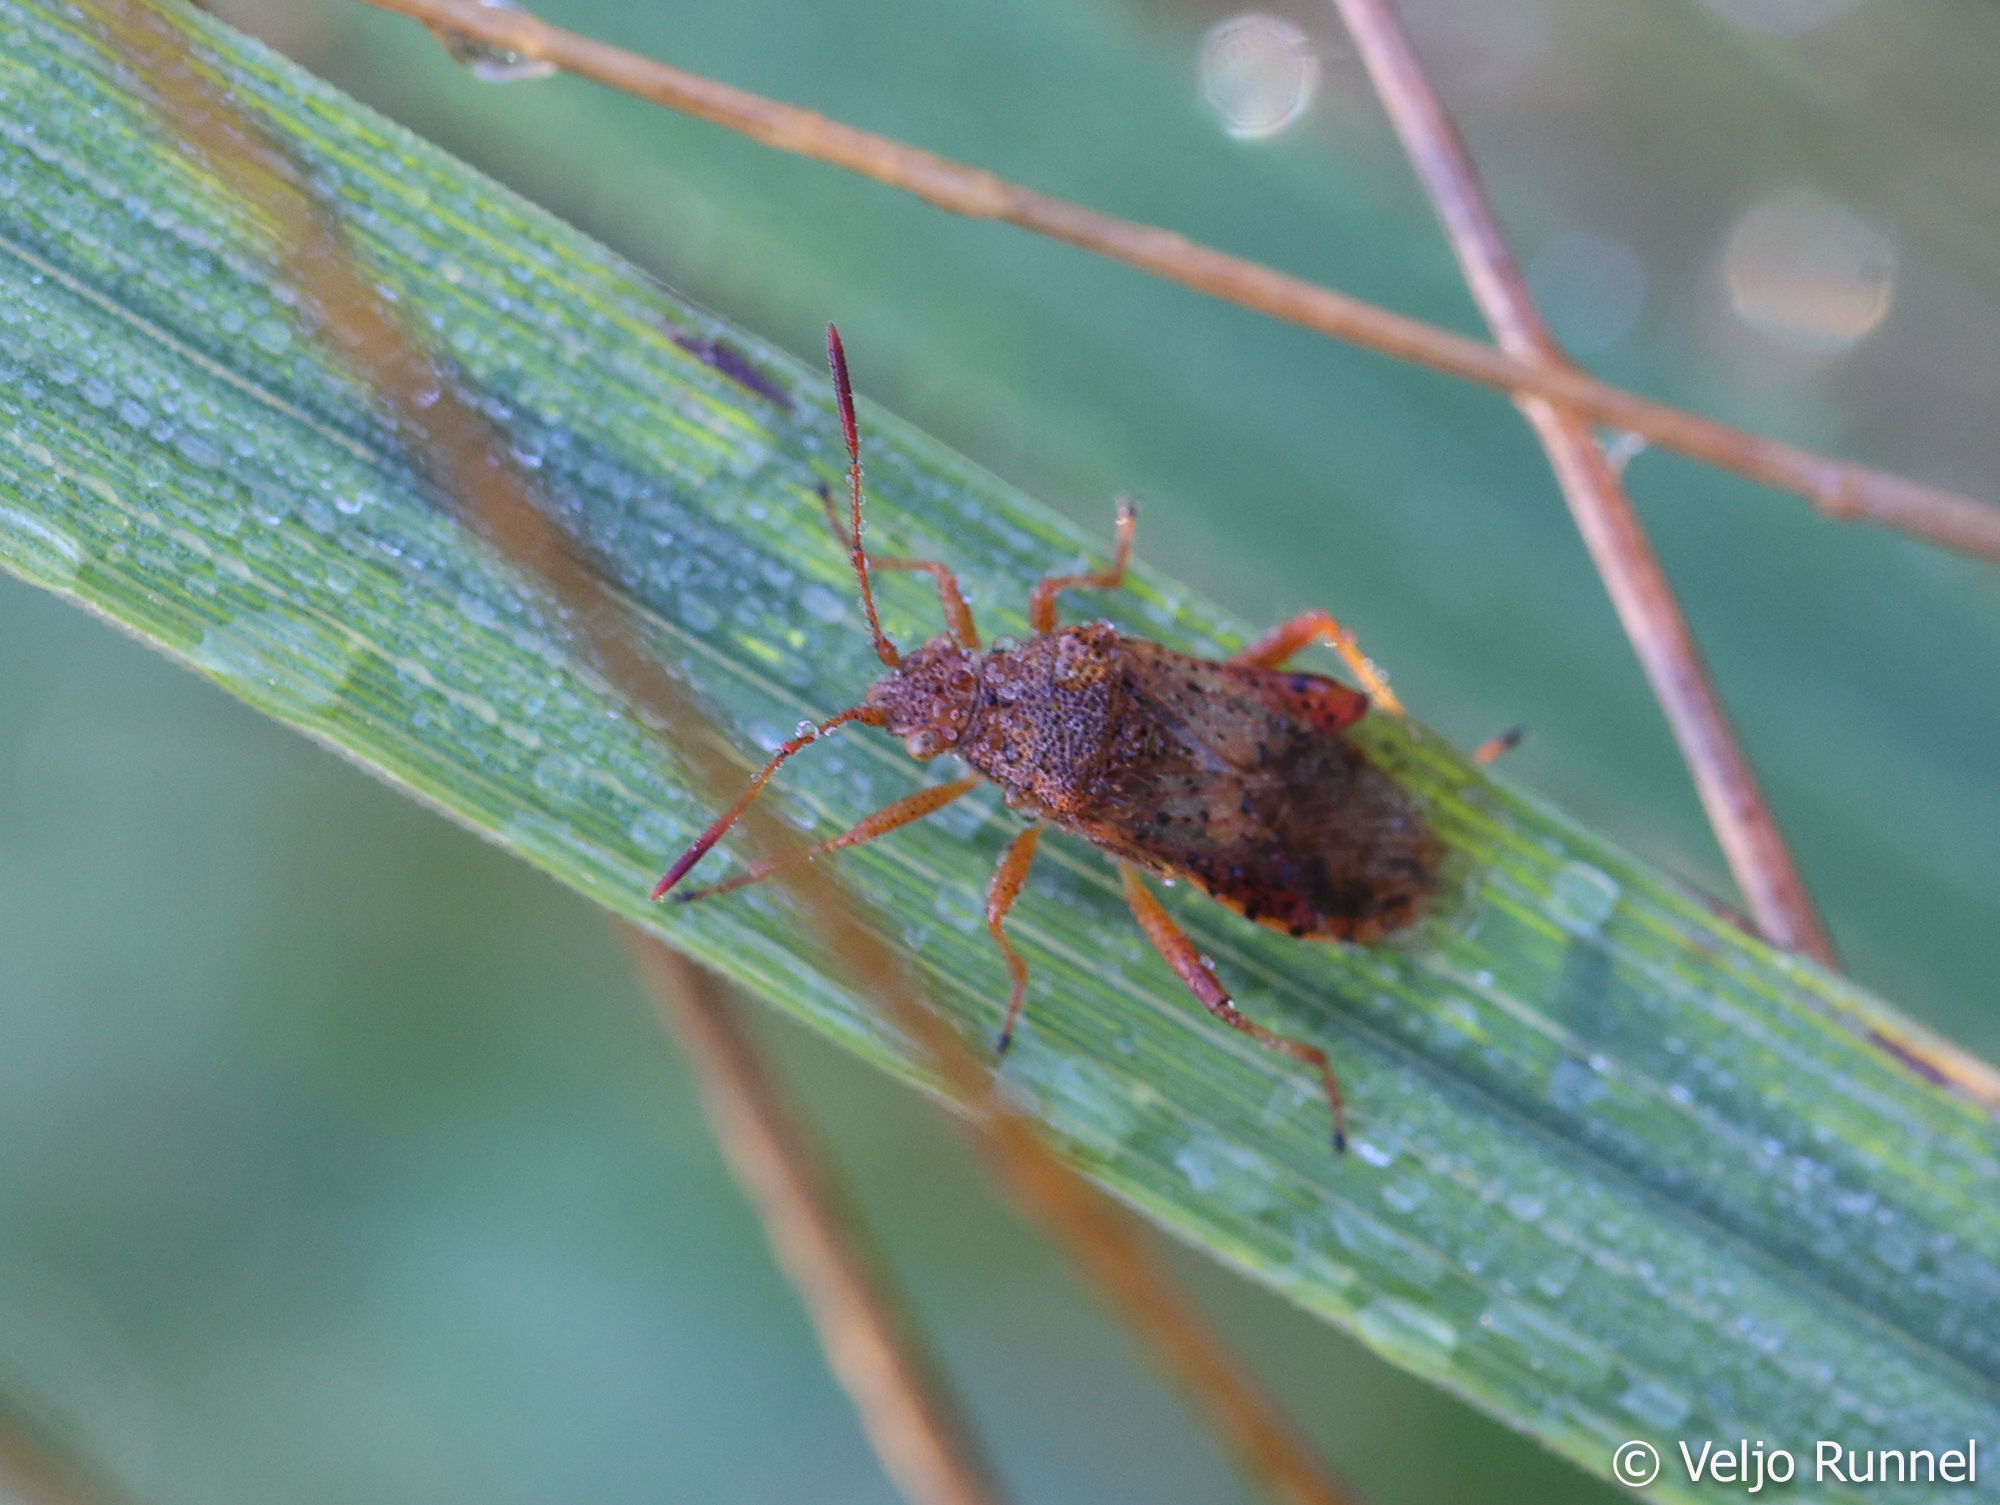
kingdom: Animalia
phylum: Arthropoda
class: Insecta
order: Hemiptera
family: Rhopalidae
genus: Rhopalus
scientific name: Rhopalus maculatus
